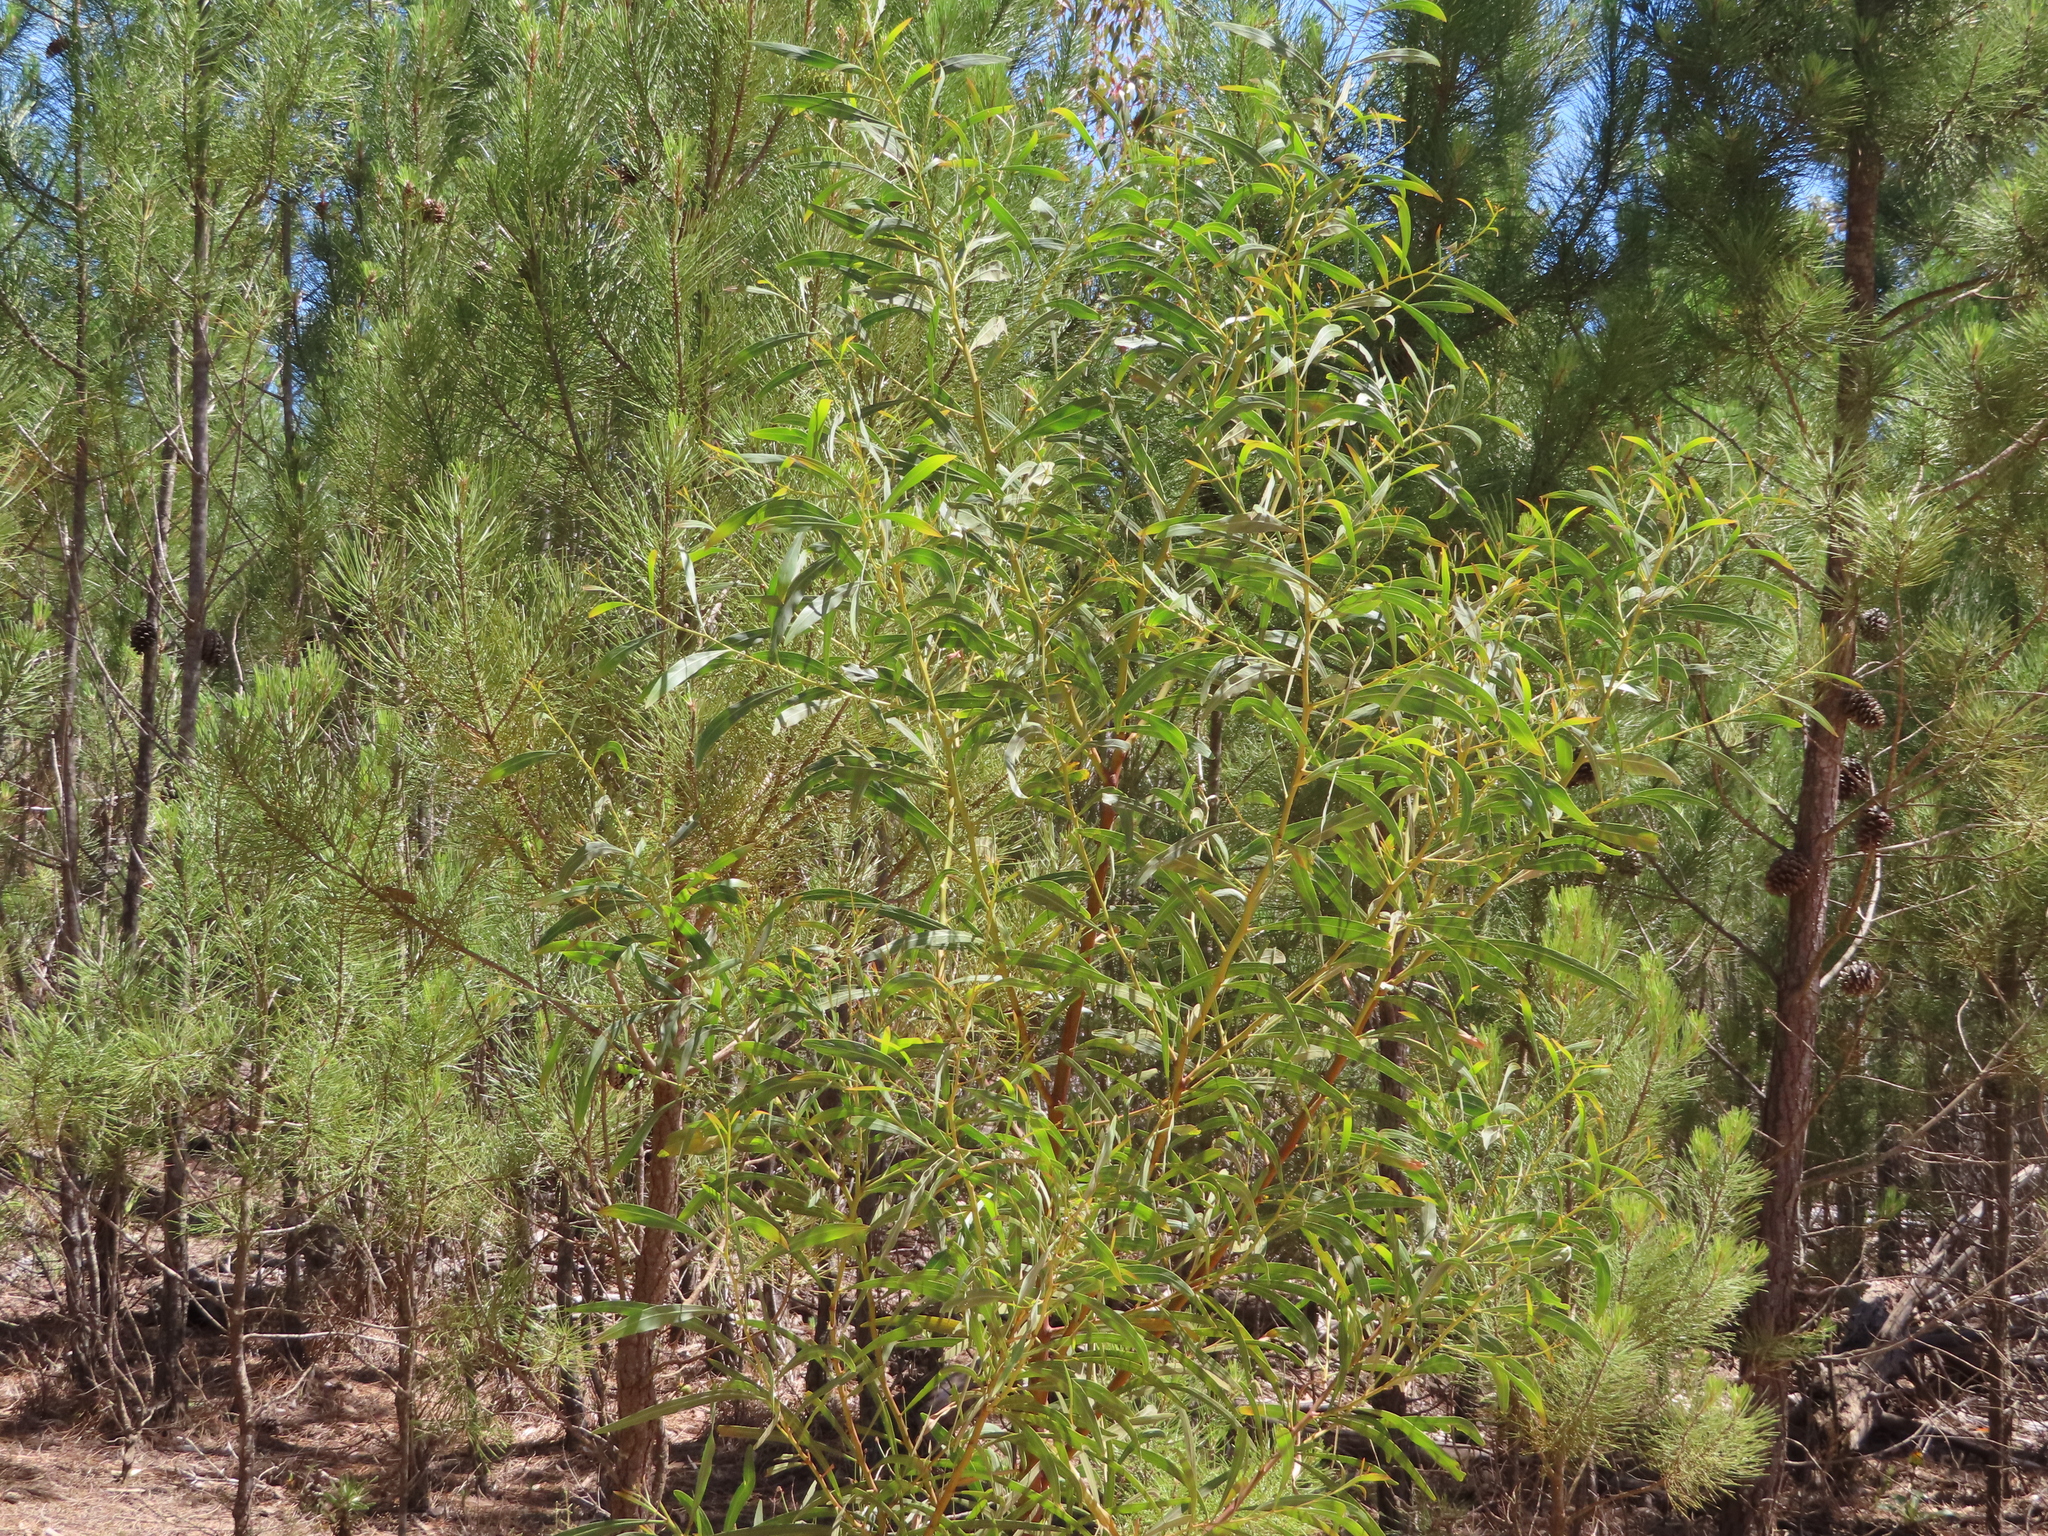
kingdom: Plantae
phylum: Tracheophyta
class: Magnoliopsida
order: Fabales
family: Fabaceae
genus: Acacia
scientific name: Acacia saligna
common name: Orange wattle
